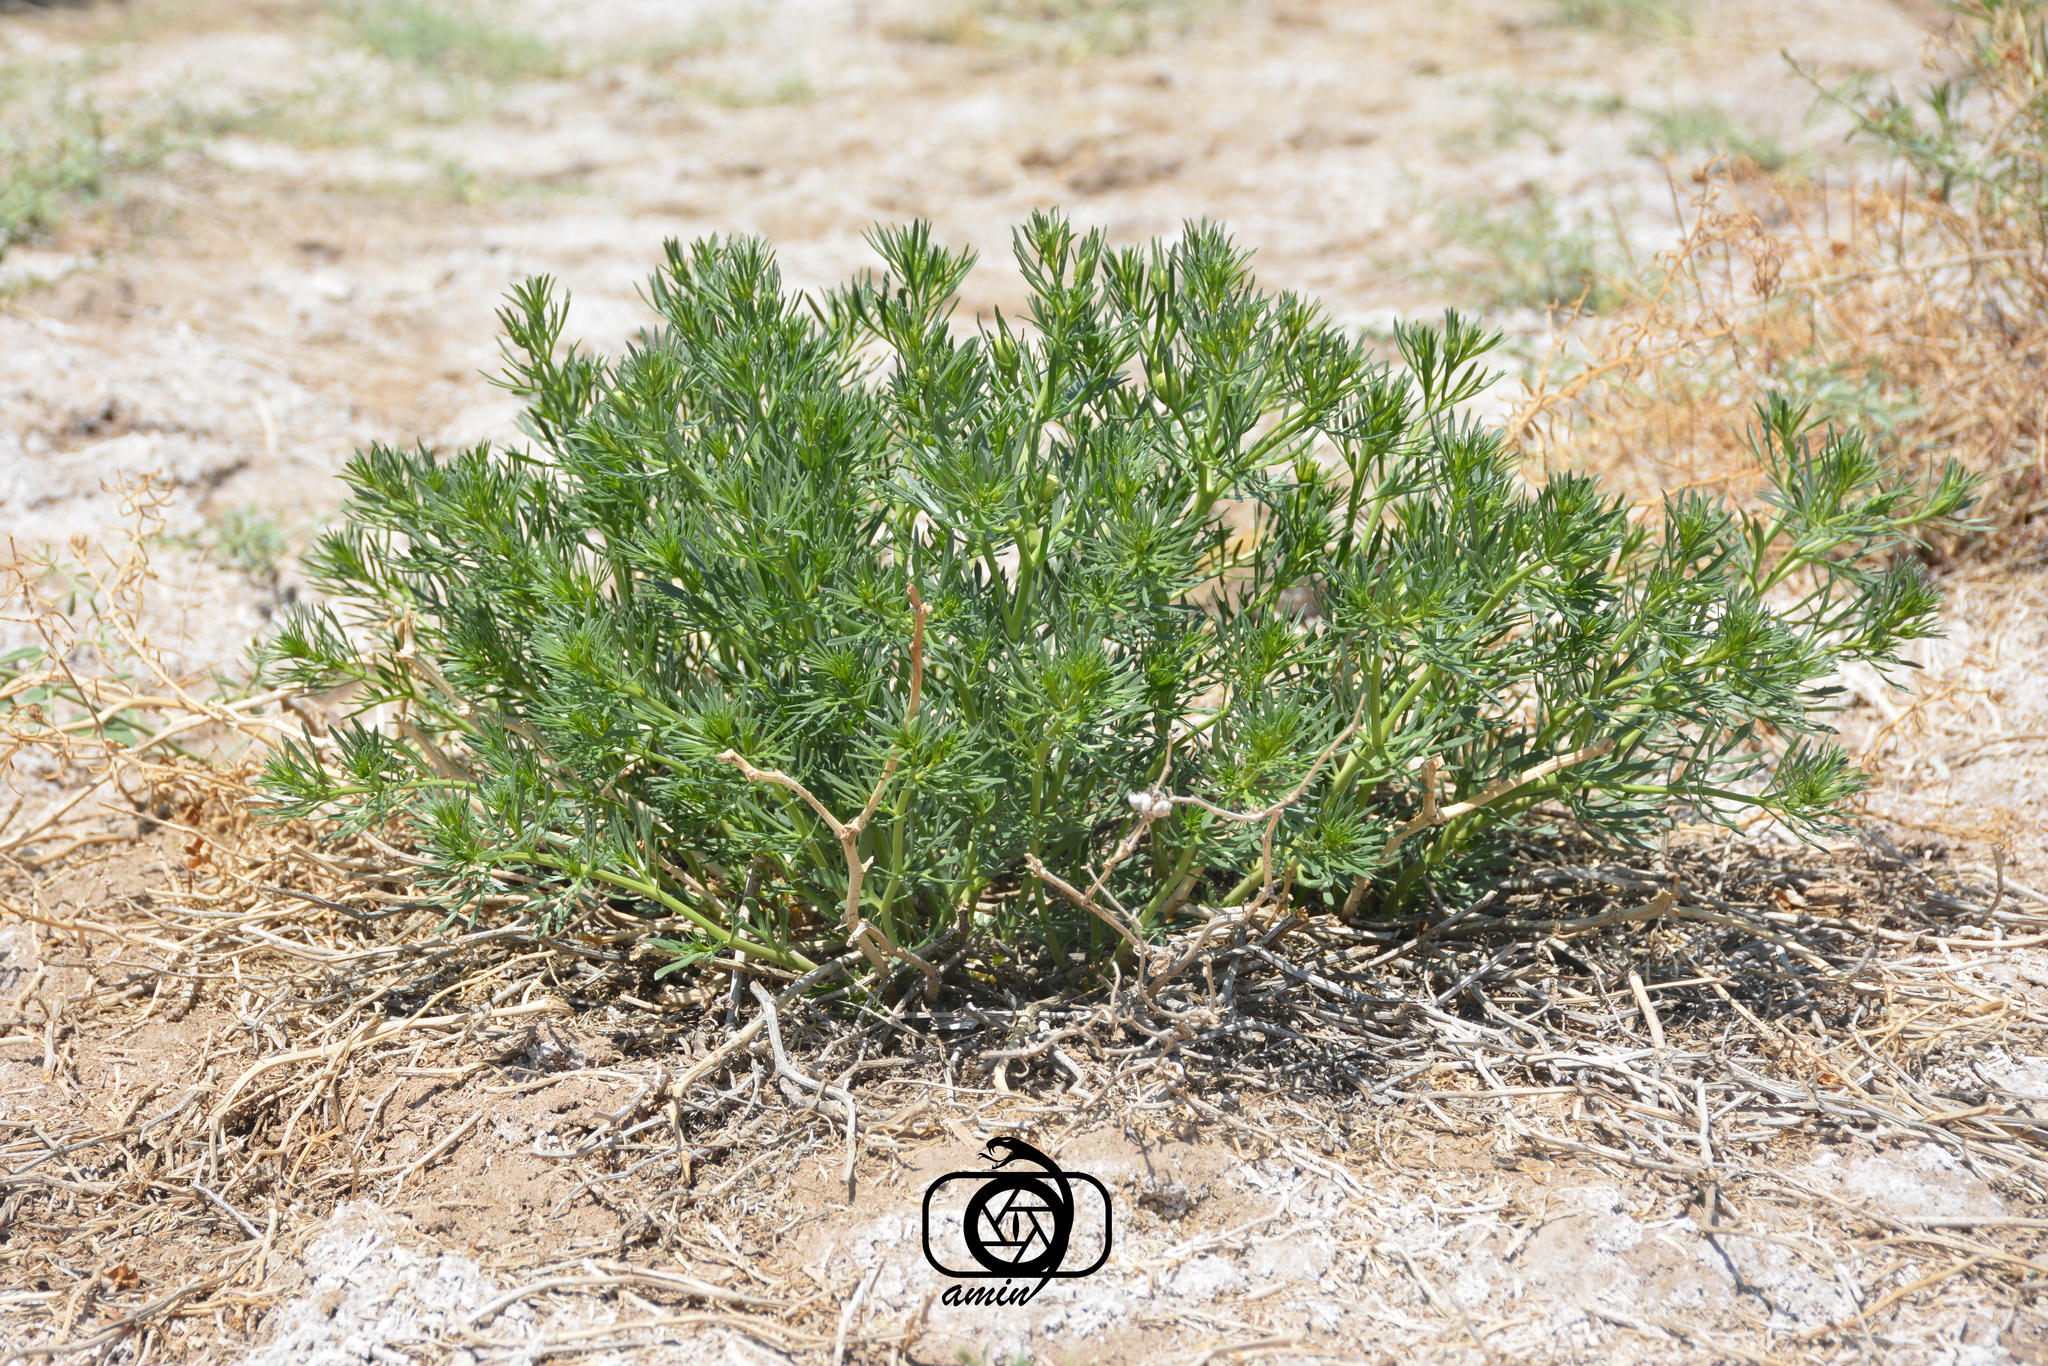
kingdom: Plantae
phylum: Tracheophyta
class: Magnoliopsida
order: Sapindales
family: Tetradiclidaceae
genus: Peganum
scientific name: Peganum harmala
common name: Harmal peganum
